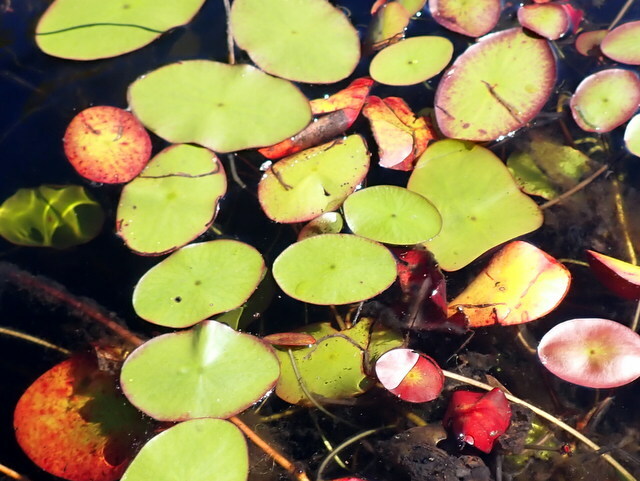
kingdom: Plantae
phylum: Tracheophyta
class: Magnoliopsida
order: Nymphaeales
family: Cabombaceae
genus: Brasenia
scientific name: Brasenia schreberi
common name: Water-shield
